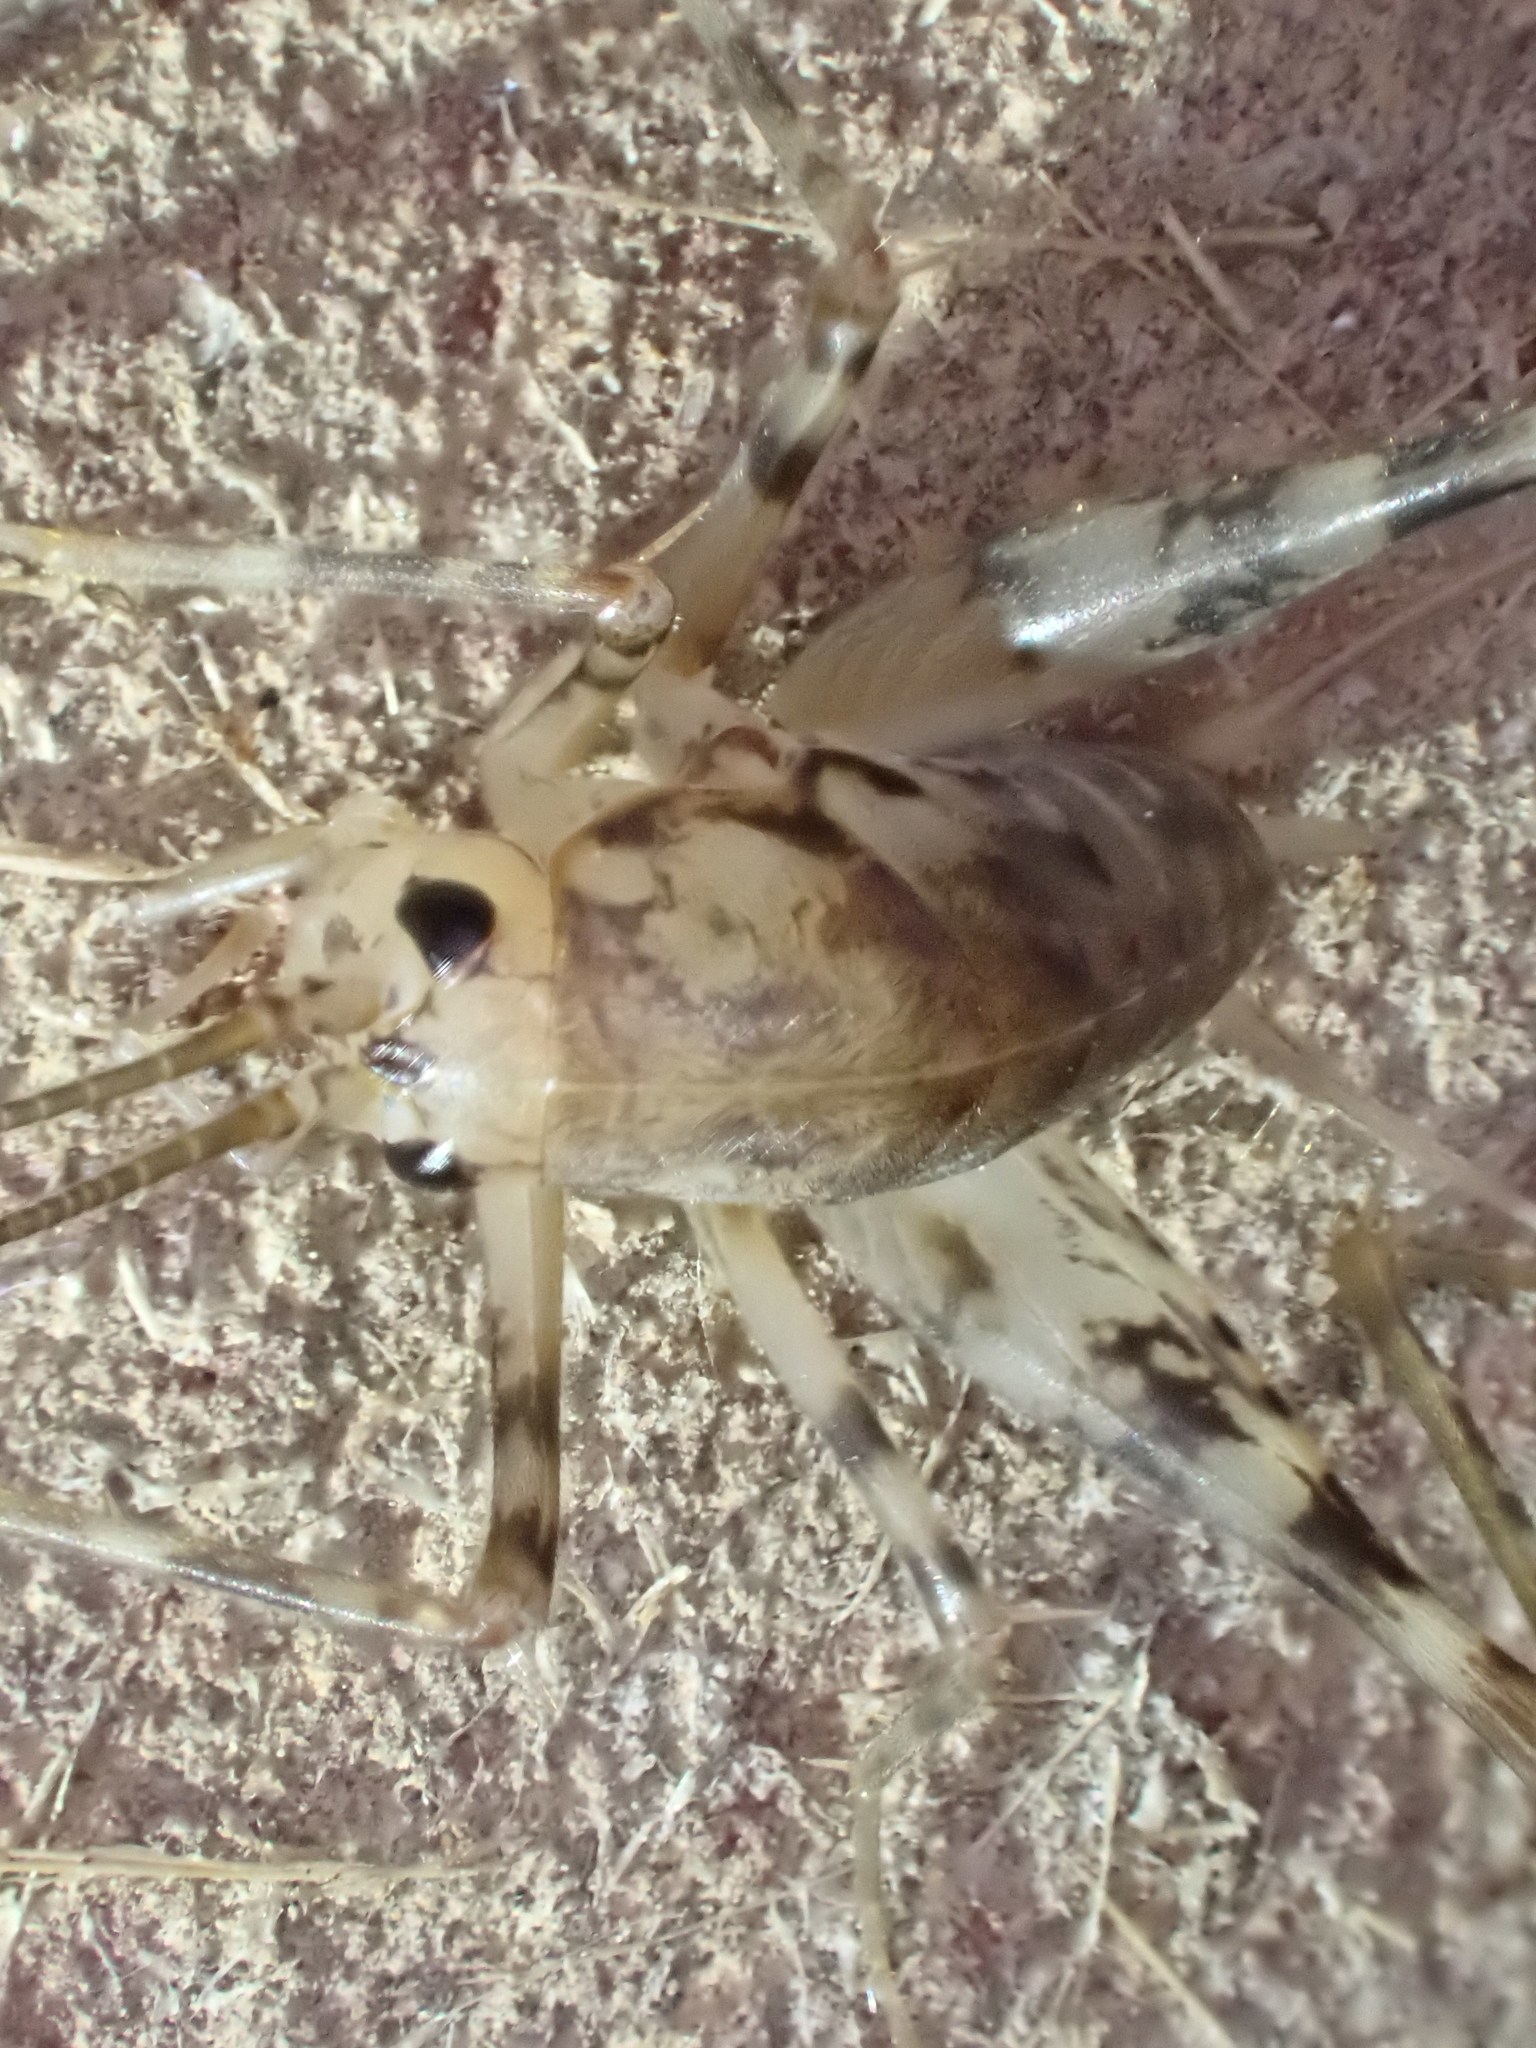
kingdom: Animalia
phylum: Arthropoda
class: Insecta
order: Orthoptera
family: Rhaphidophoridae
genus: Tachycines
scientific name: Tachycines asynamorus
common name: Greenhouse camel cricket
